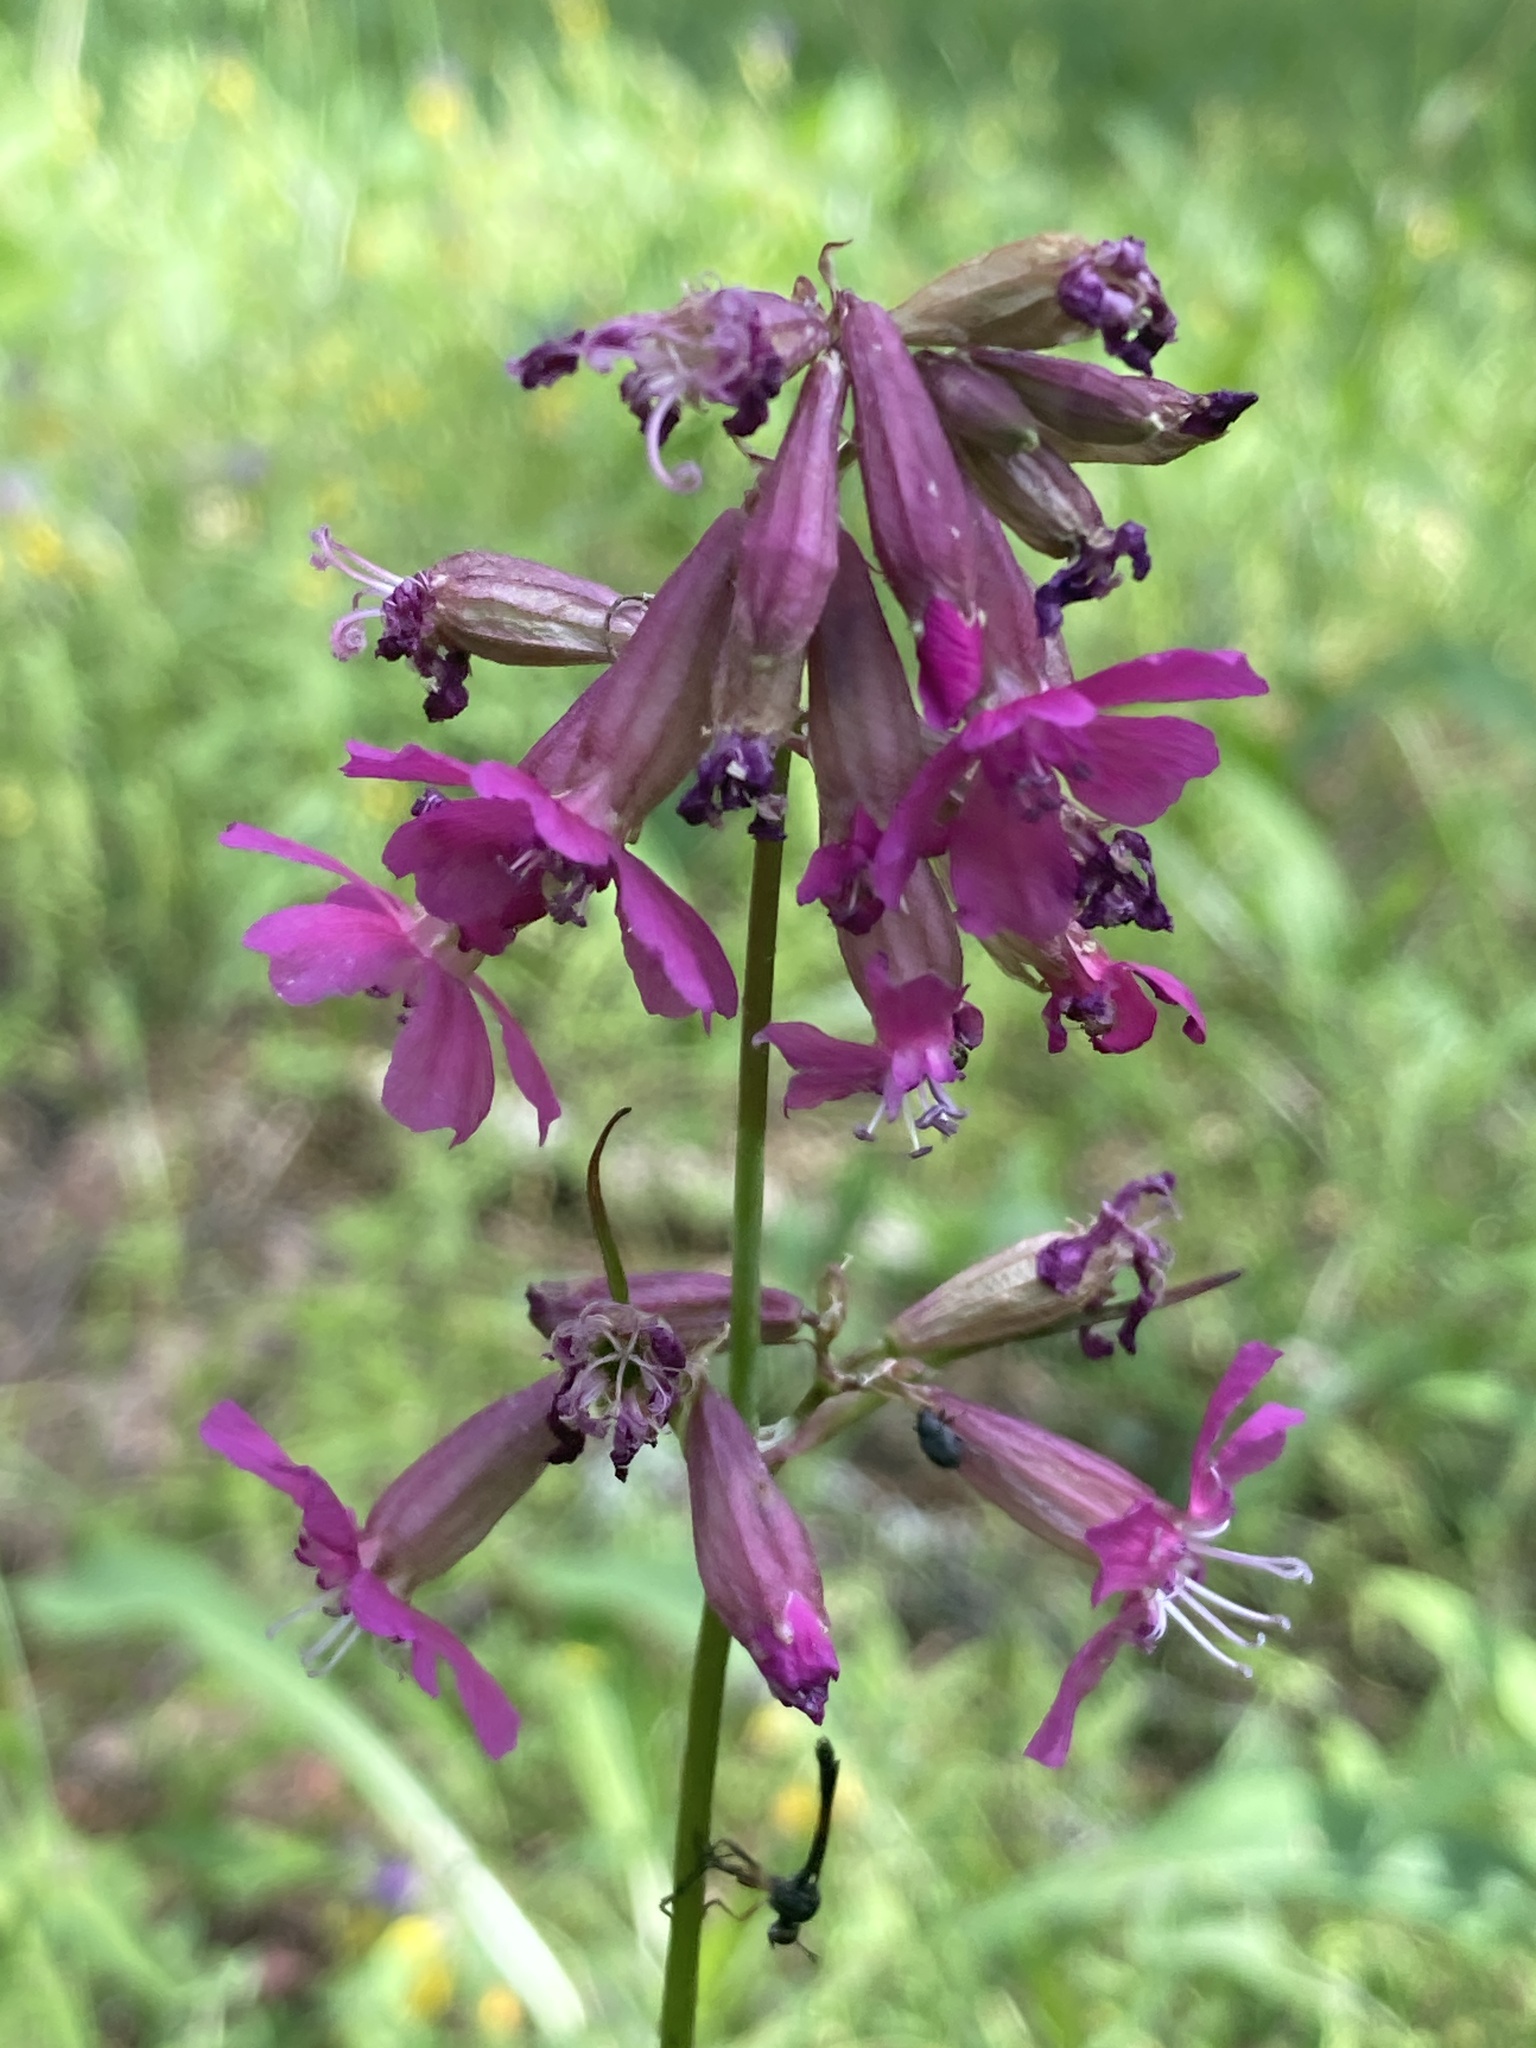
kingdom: Plantae
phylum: Tracheophyta
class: Magnoliopsida
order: Caryophyllales
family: Caryophyllaceae
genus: Viscaria
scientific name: Viscaria vulgaris
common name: Clammy campion
